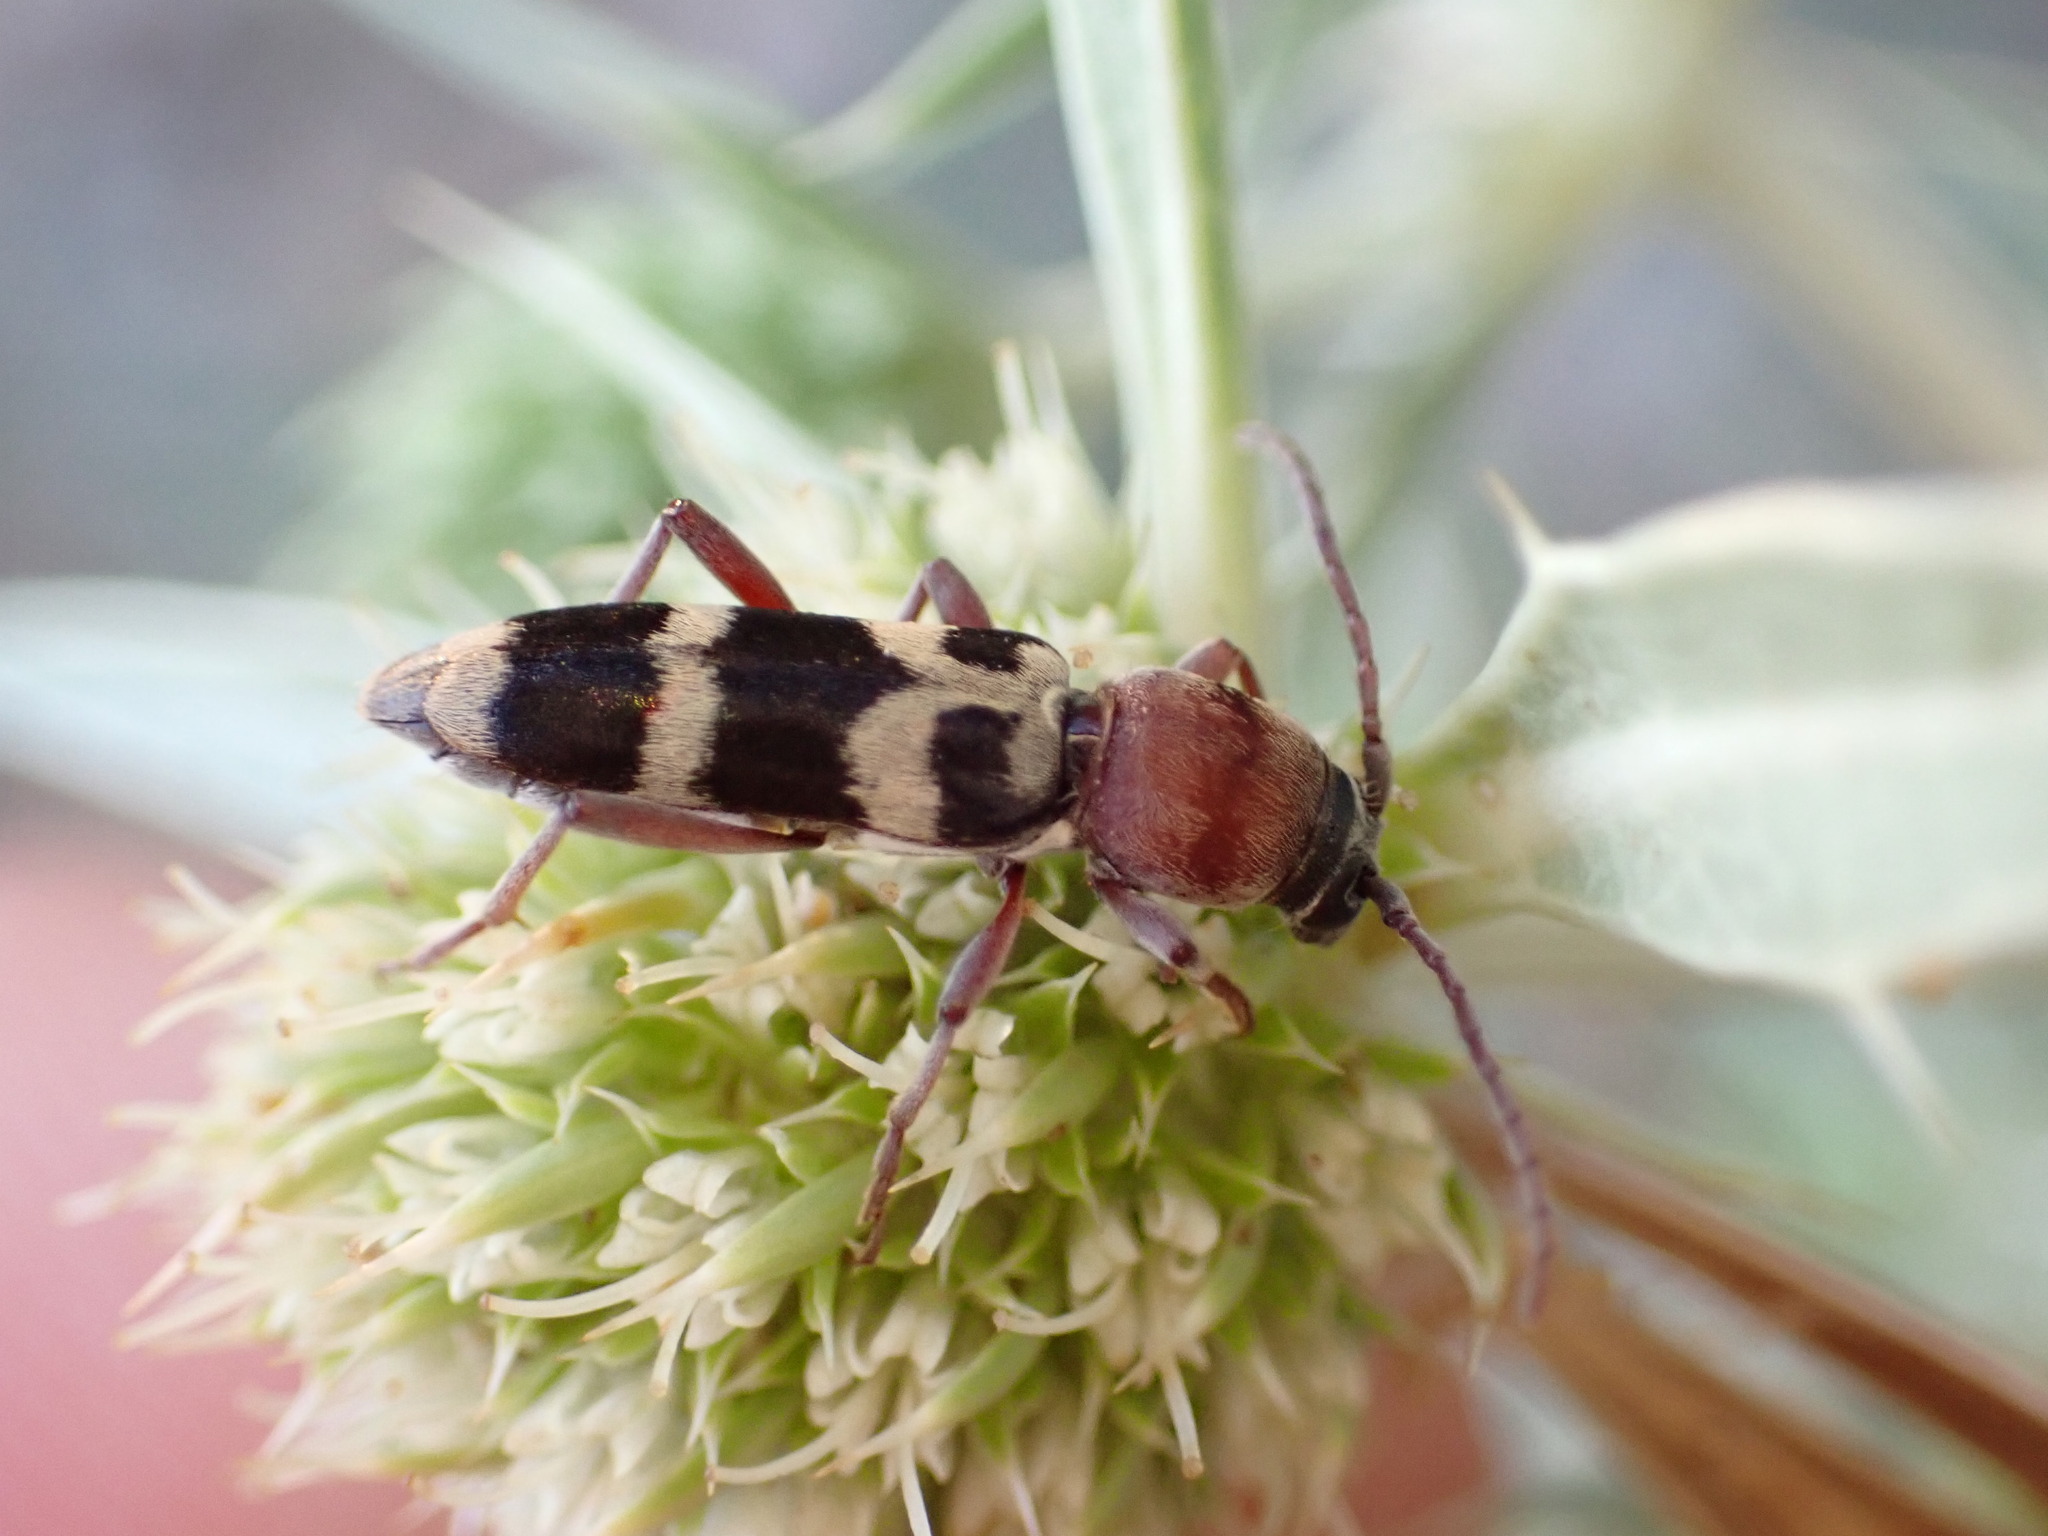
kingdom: Animalia
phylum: Arthropoda
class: Insecta
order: Coleoptera
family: Cerambycidae
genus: Chlorophorus
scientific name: Chlorophorus trifasciatus
